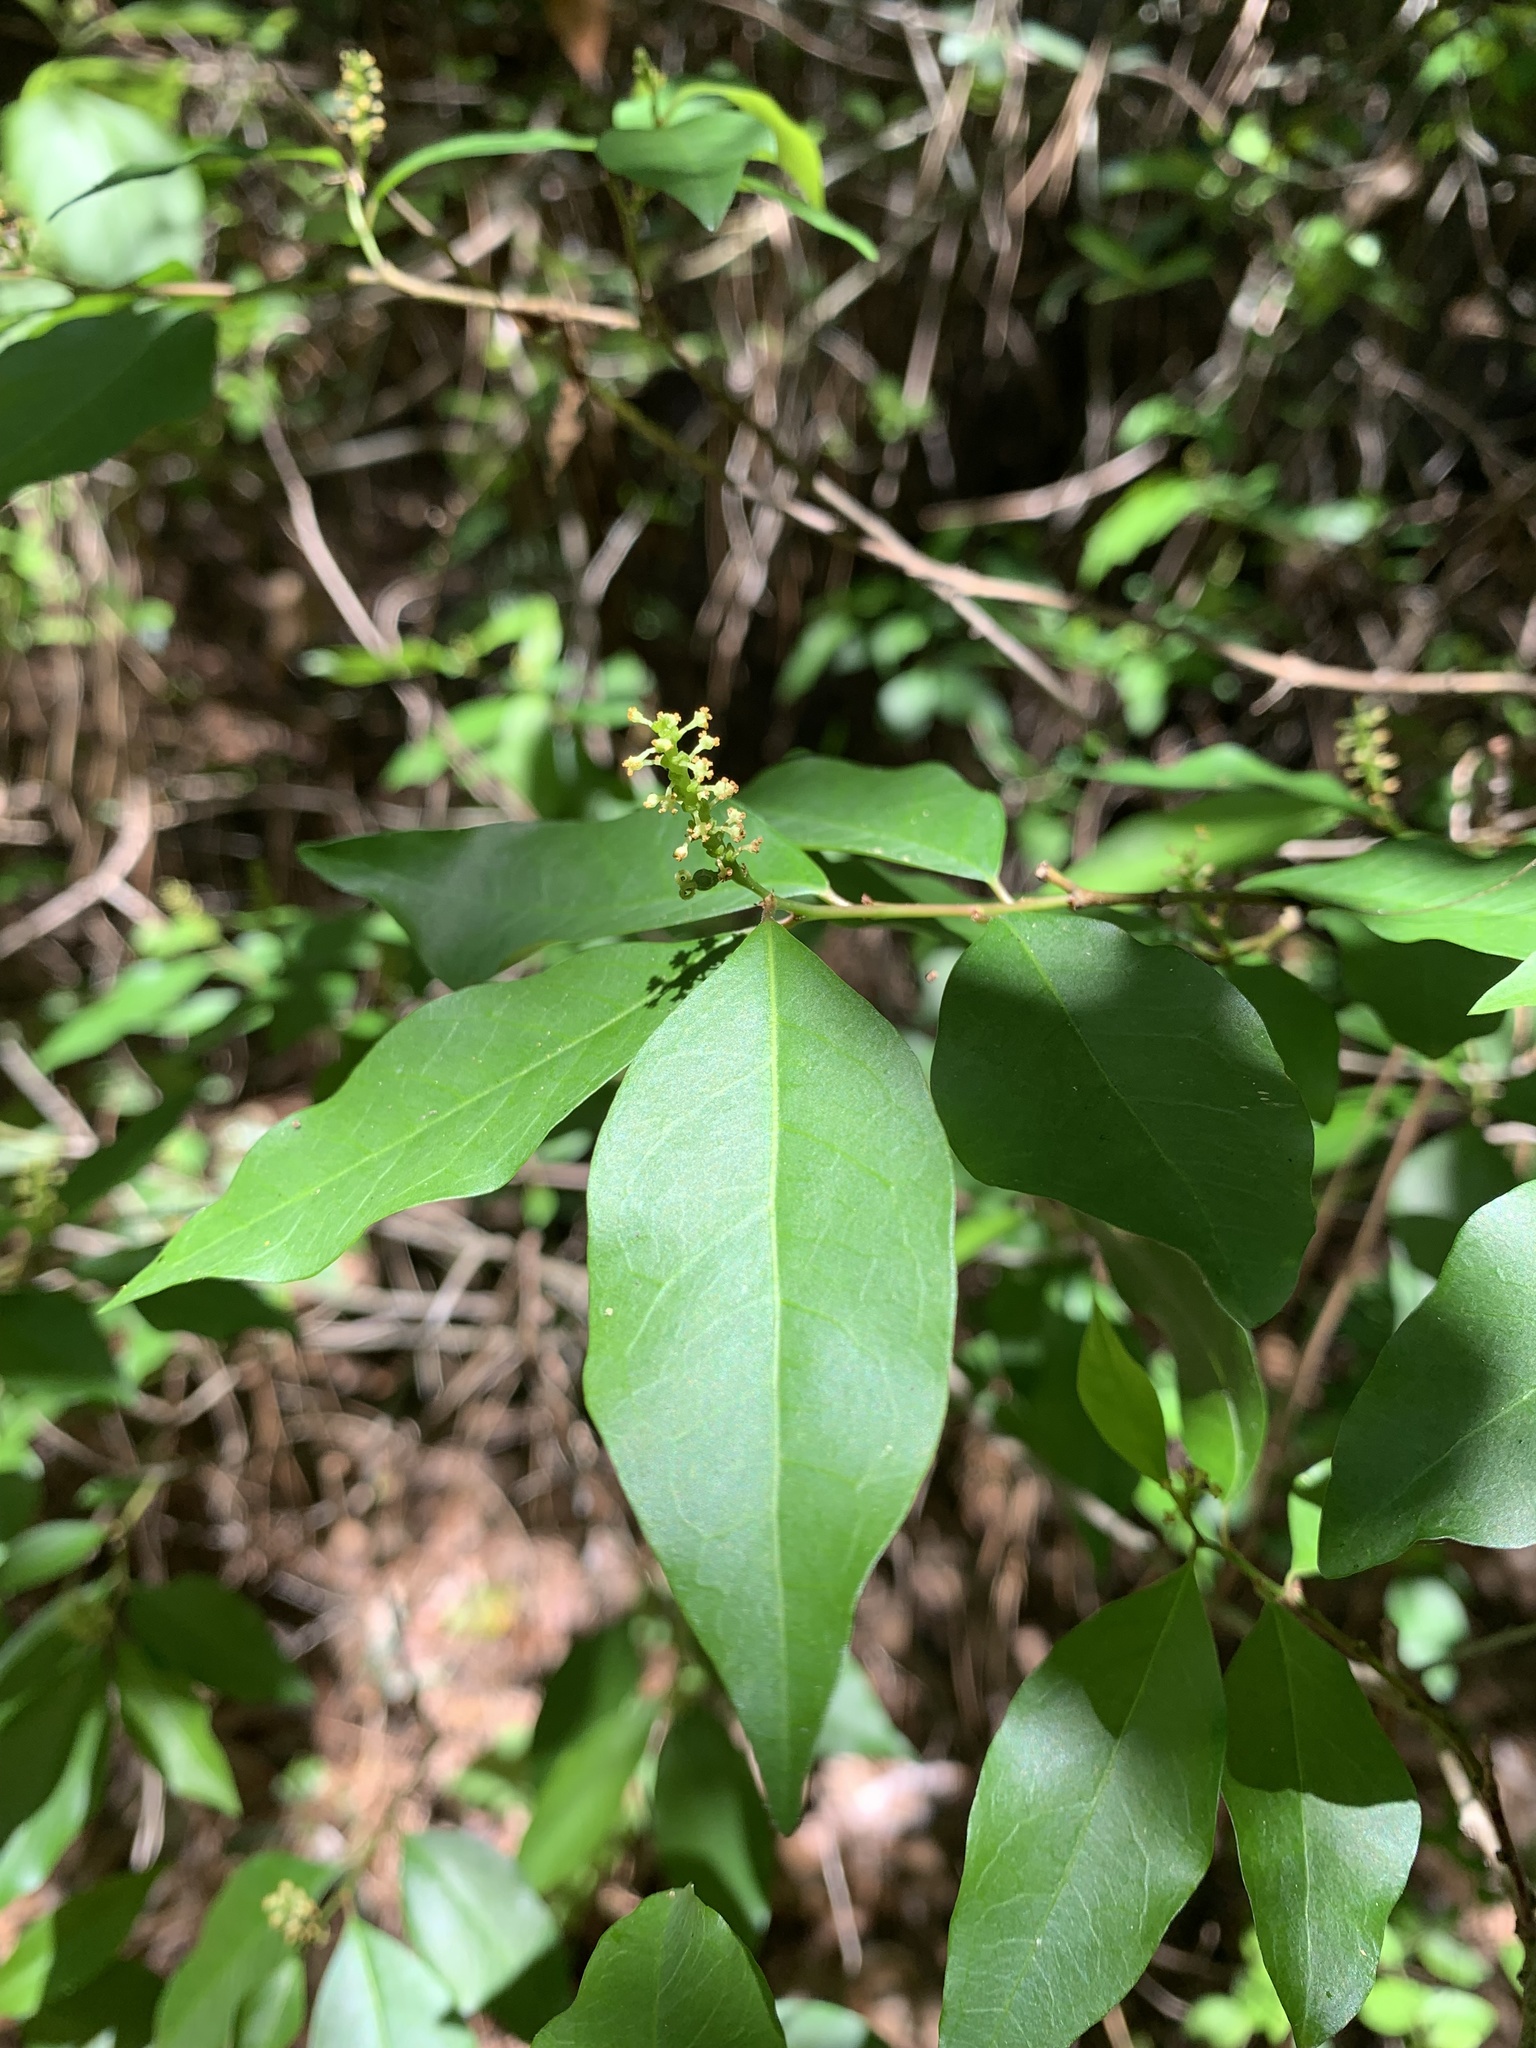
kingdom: Plantae
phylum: Tracheophyta
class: Magnoliopsida
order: Malpighiales
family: Euphorbiaceae
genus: Ditrysinia
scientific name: Ditrysinia fruticosa
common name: Gulf sebastian-bush
